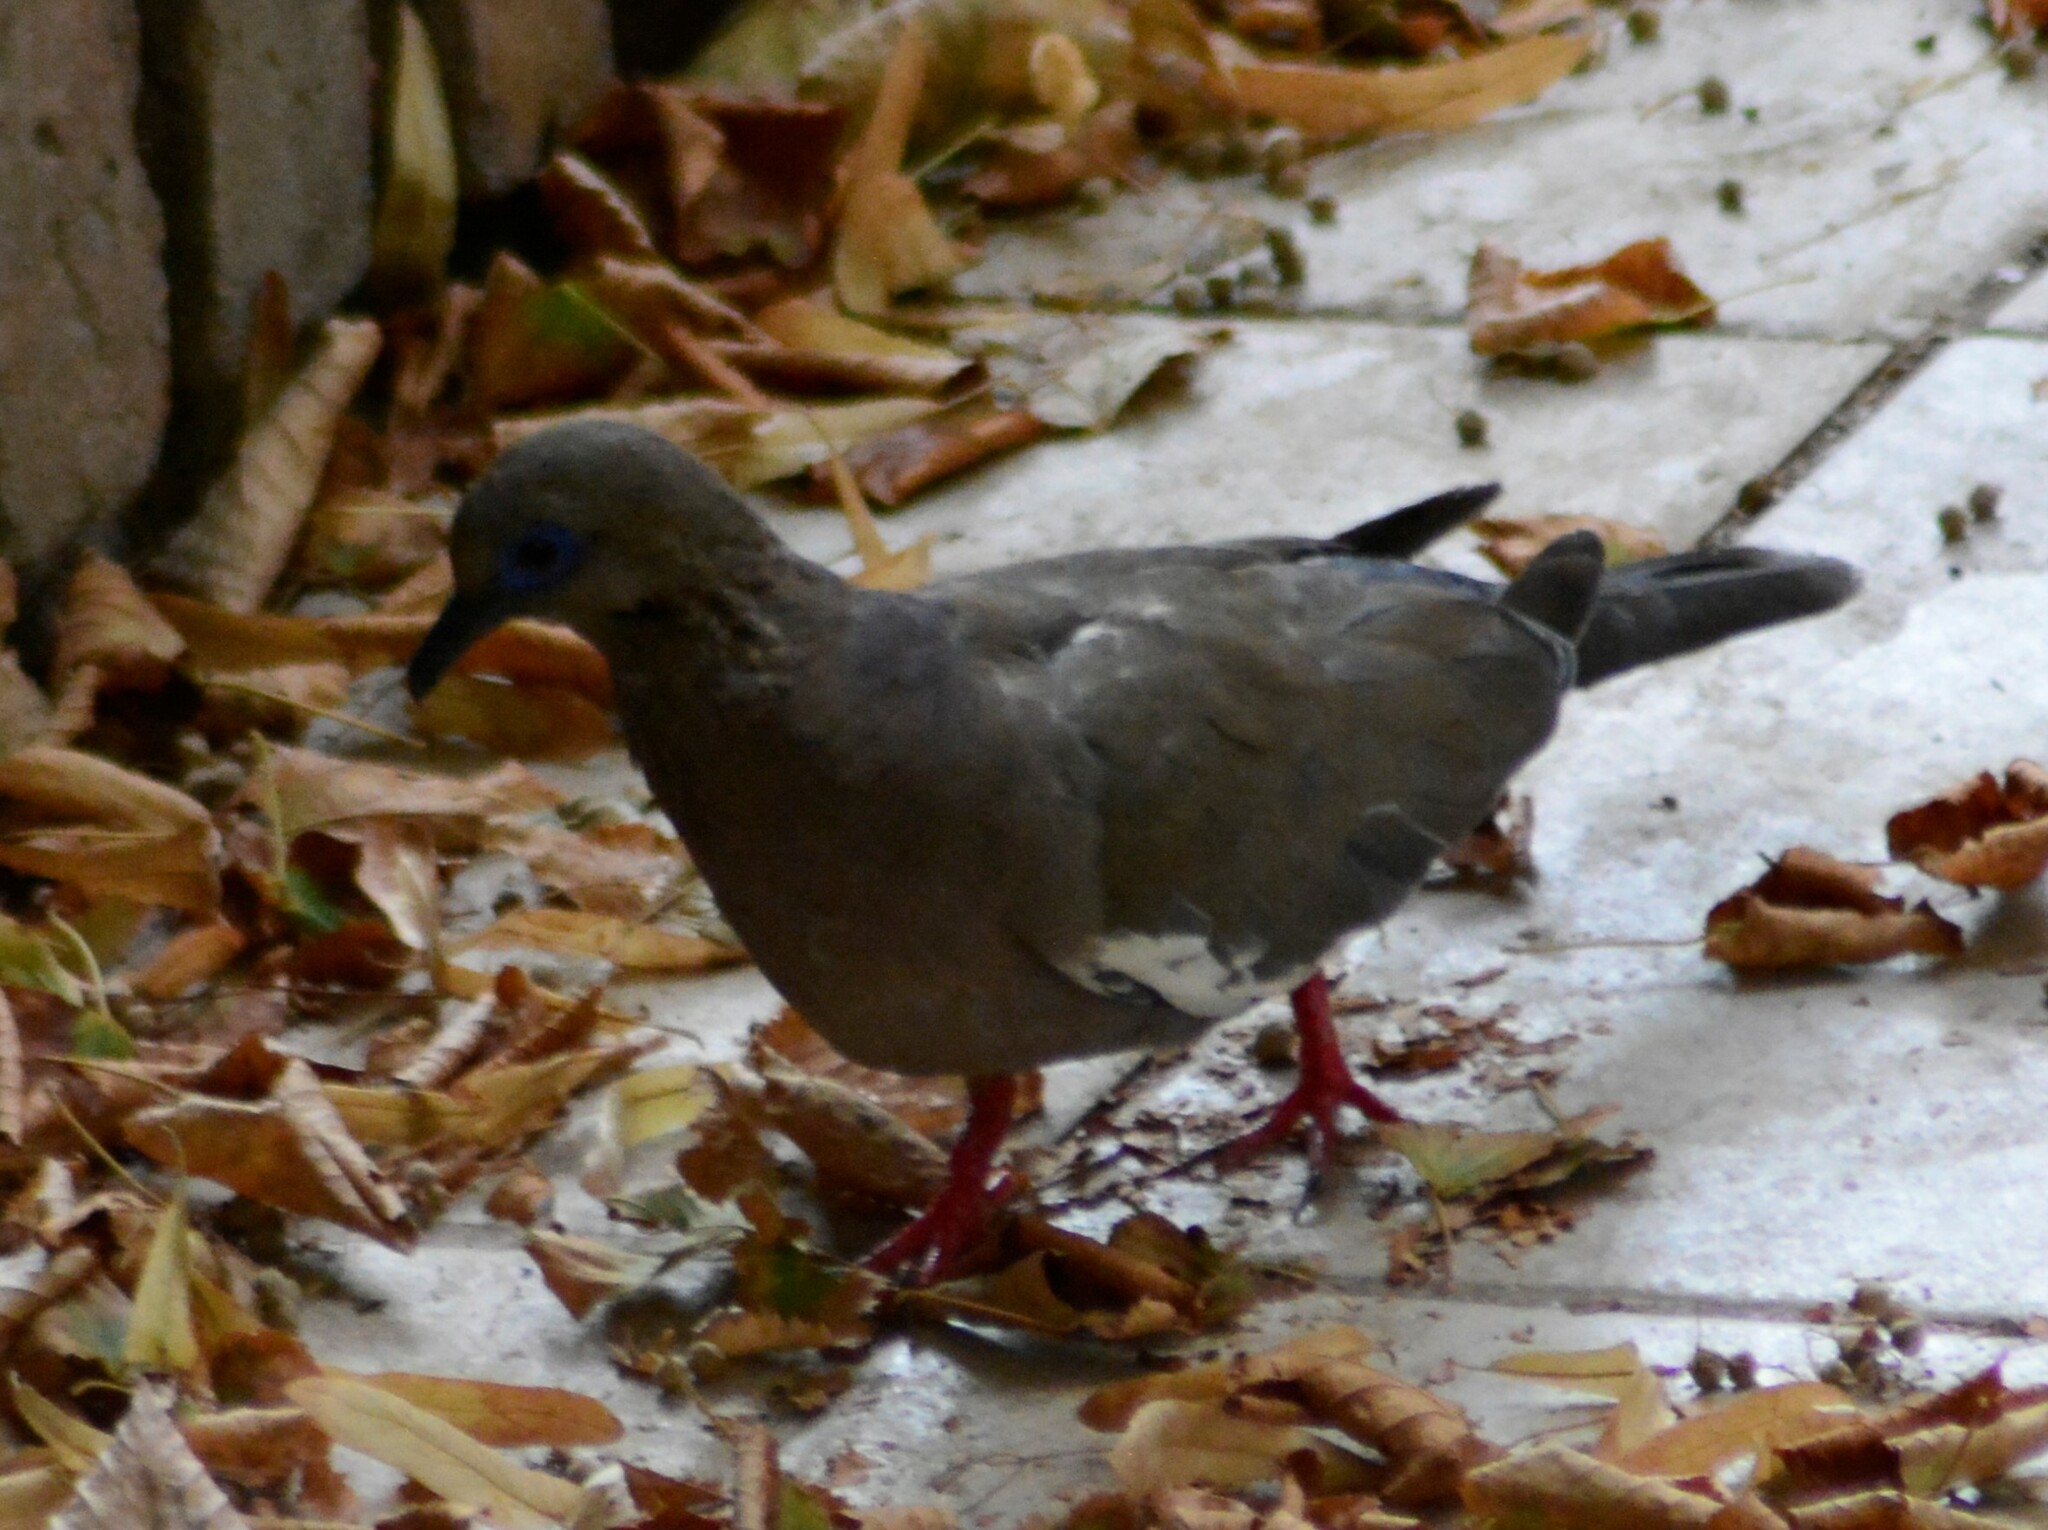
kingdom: Animalia
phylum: Chordata
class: Aves
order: Columbiformes
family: Columbidae
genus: Zenaida
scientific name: Zenaida meloda
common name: West peruvian dove
